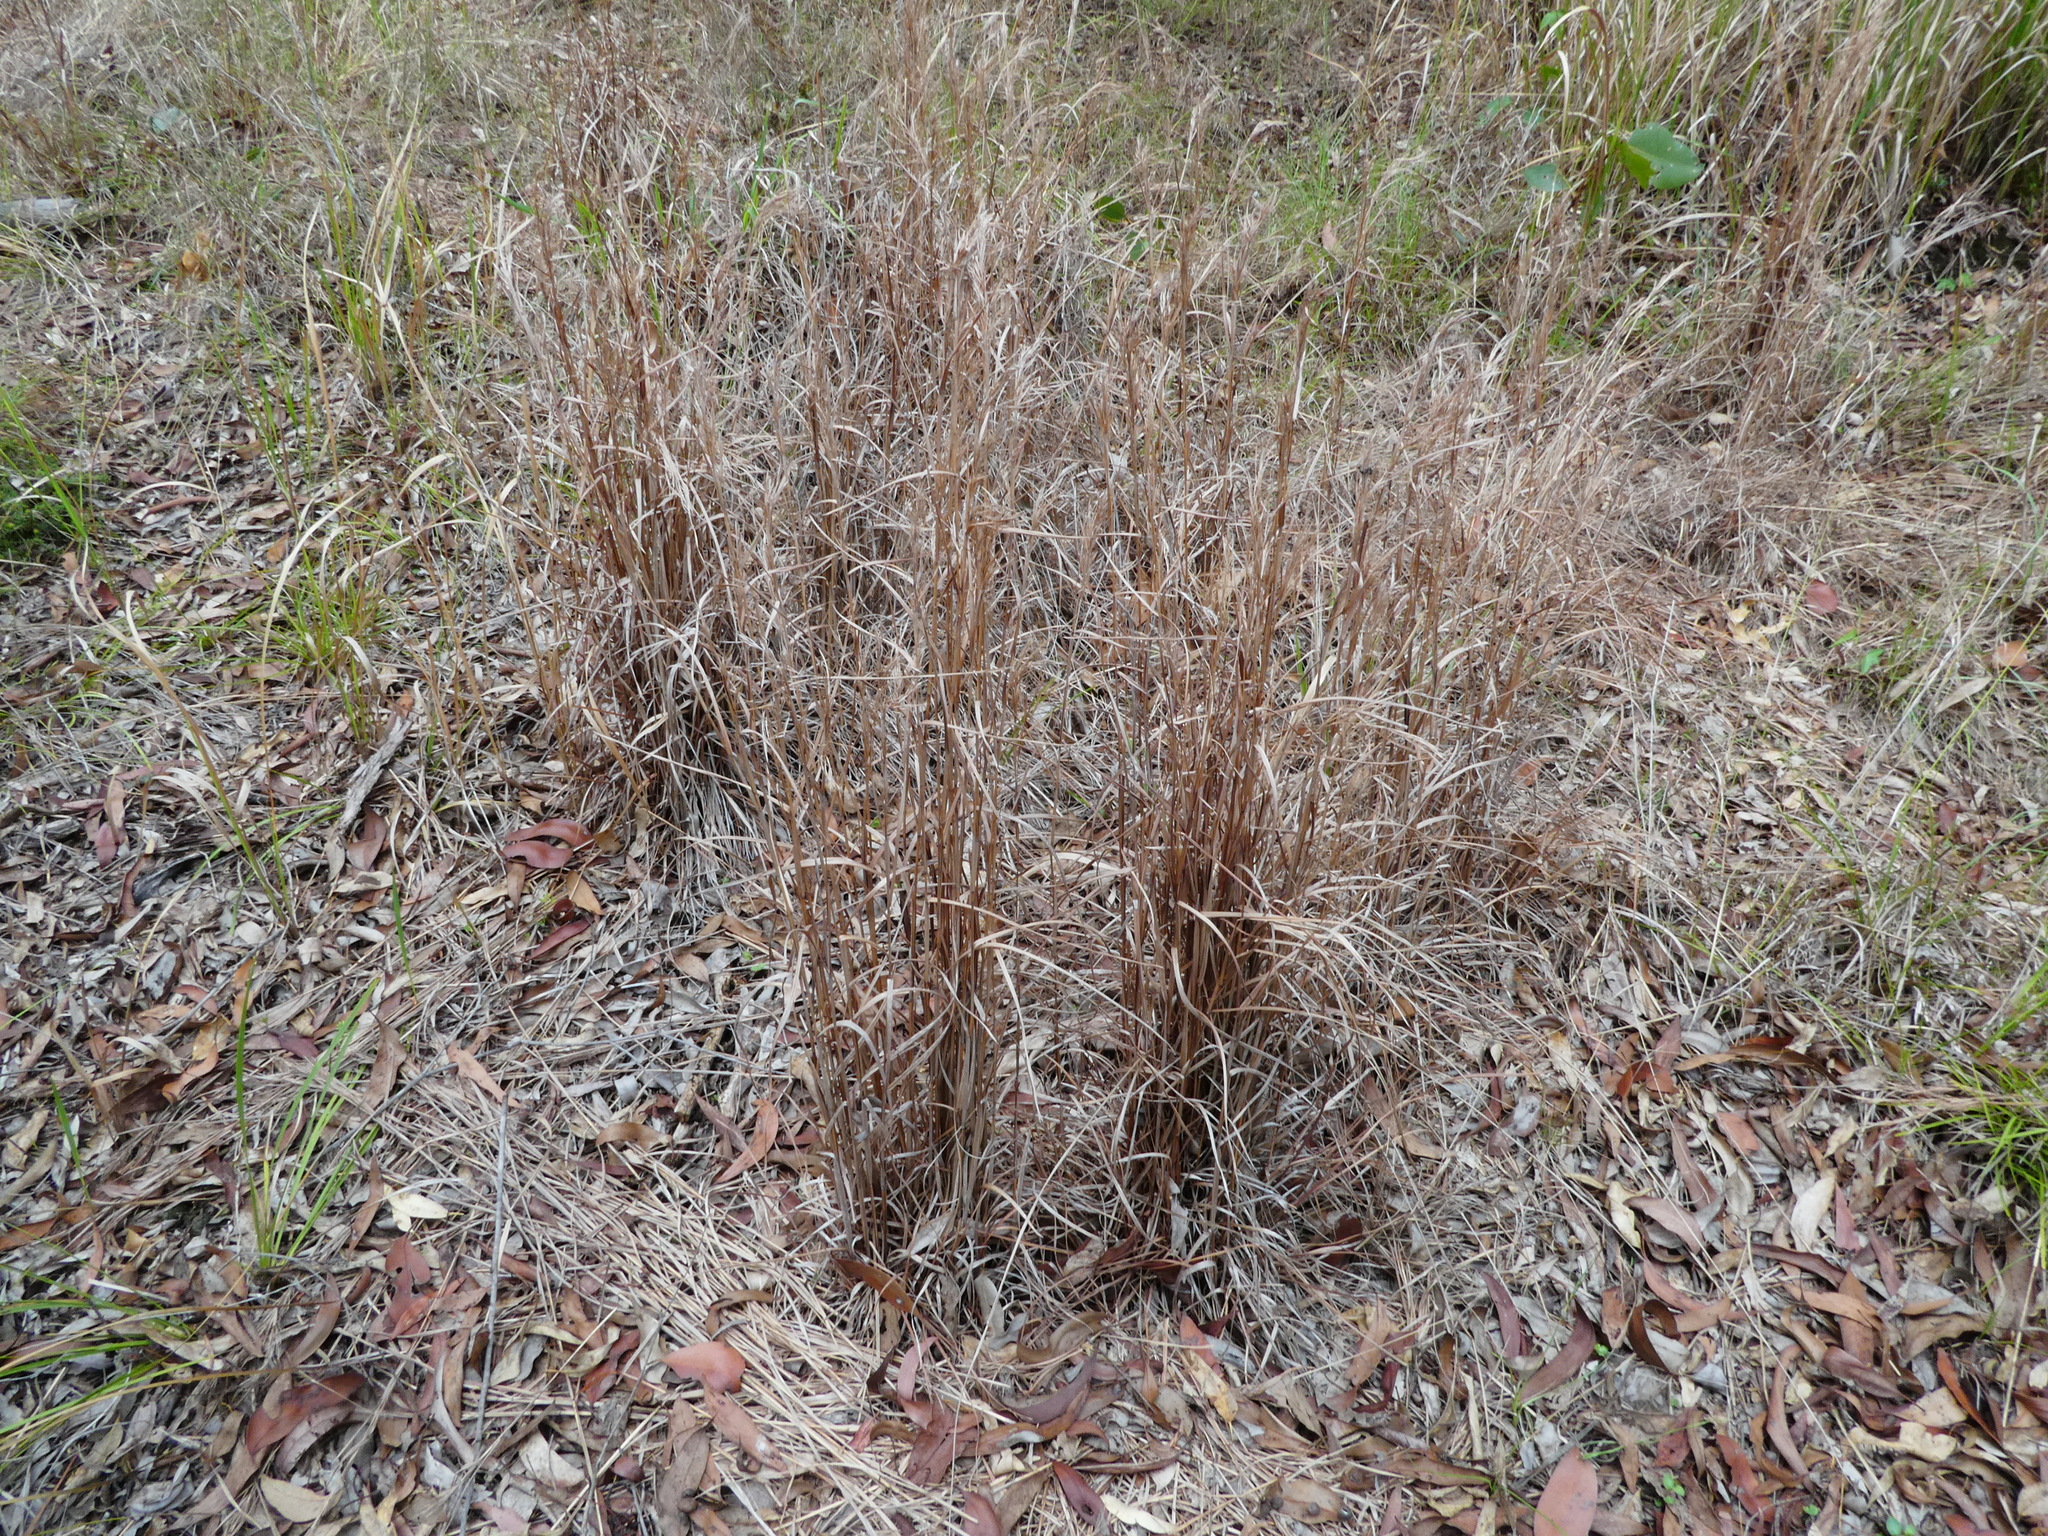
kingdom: Plantae
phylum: Tracheophyta
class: Liliopsida
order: Poales
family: Poaceae
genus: Andropogon
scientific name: Andropogon virginicus
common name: Broomsedge bluestem
